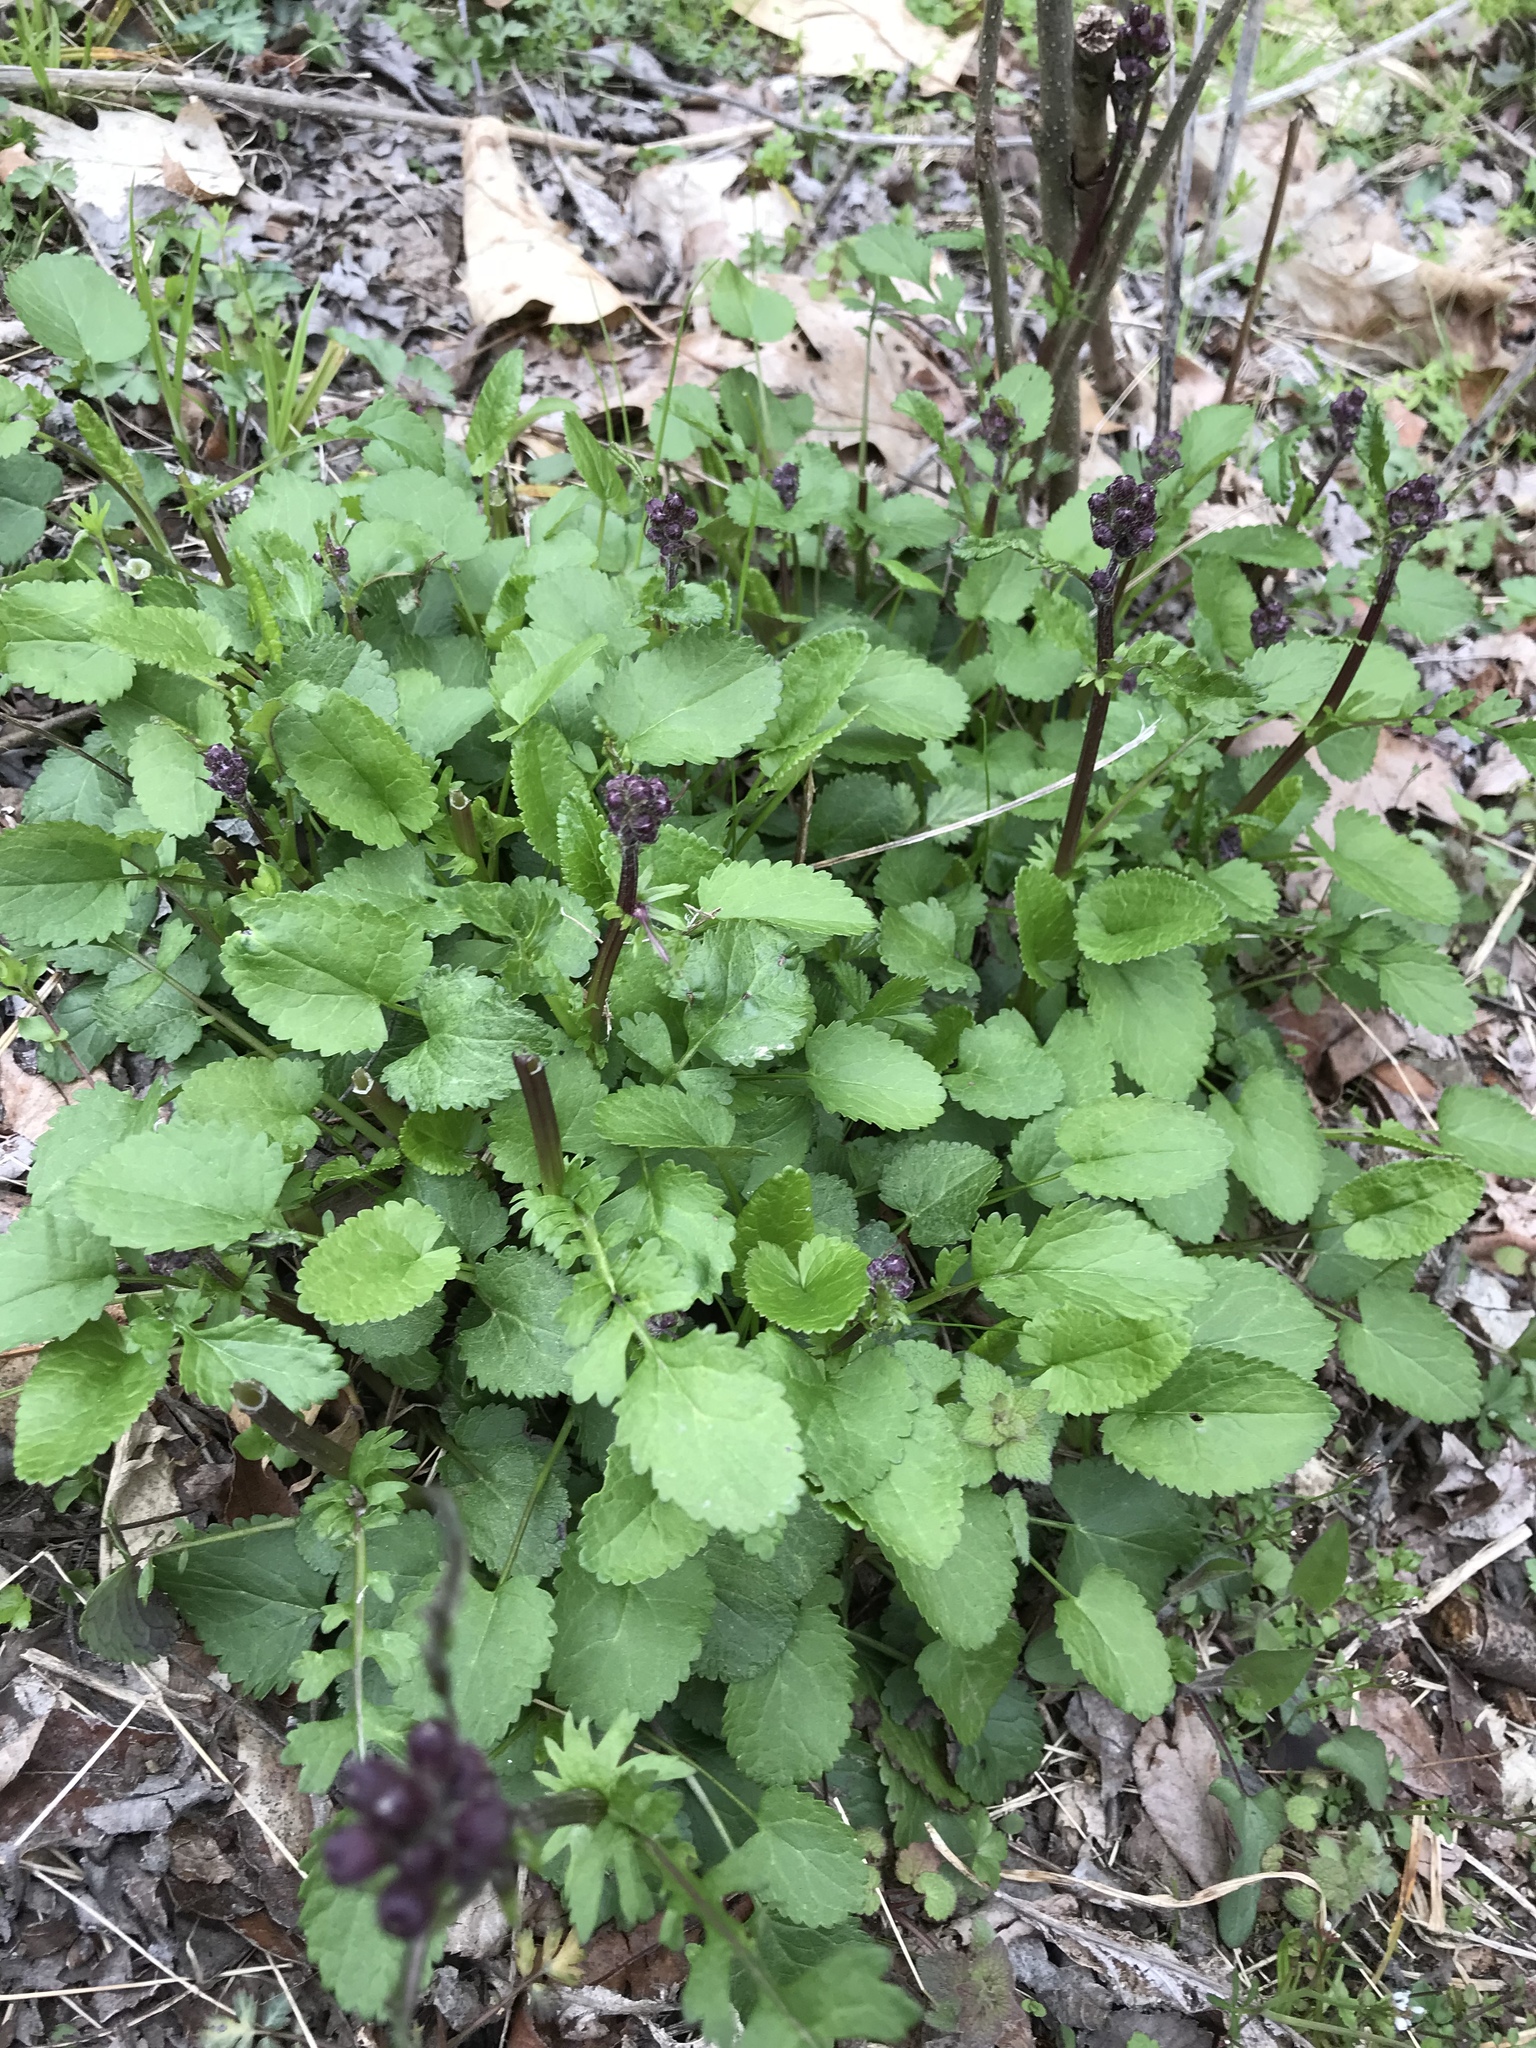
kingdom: Plantae
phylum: Tracheophyta
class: Magnoliopsida
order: Asterales
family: Asteraceae
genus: Packera
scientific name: Packera aurea
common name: Golden groundsel
